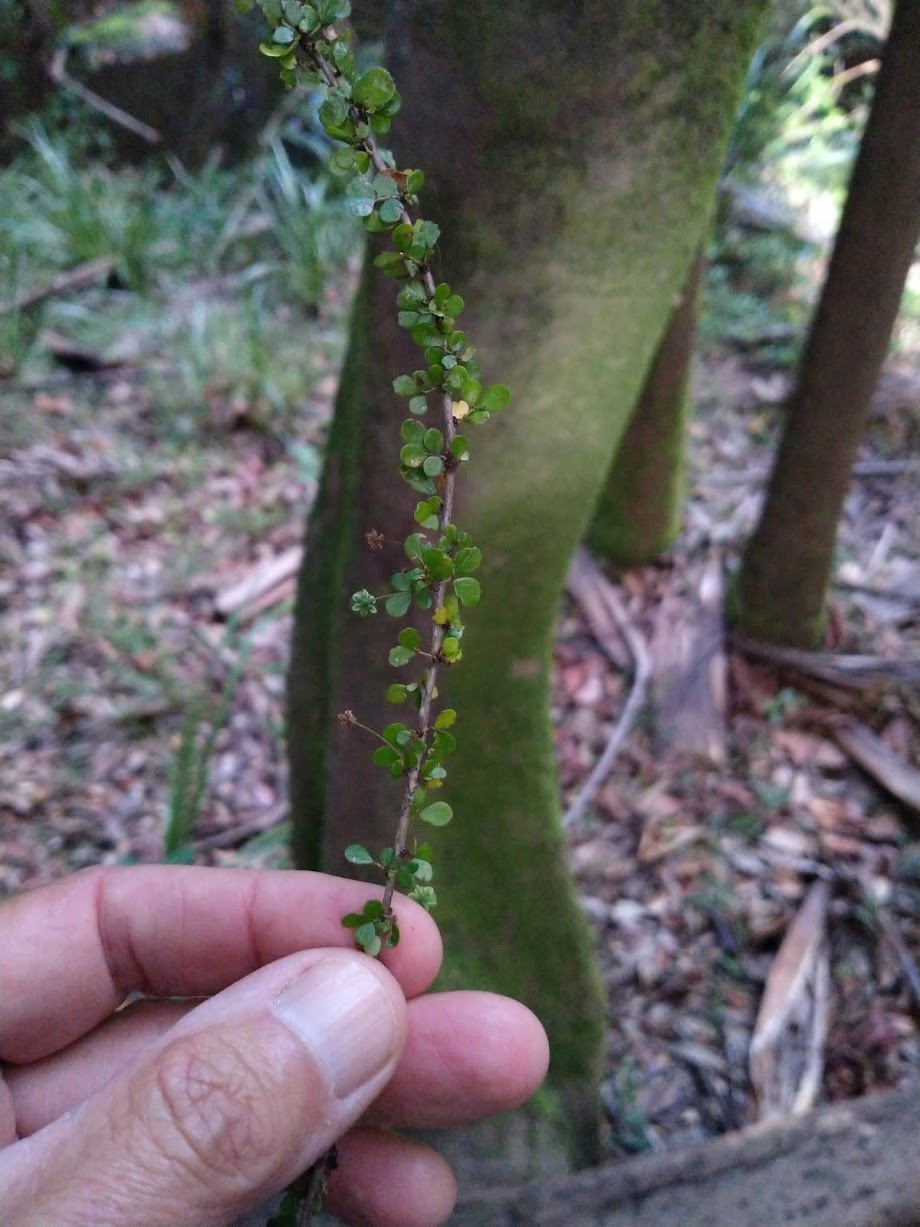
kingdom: Plantae
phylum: Tracheophyta
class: Magnoliopsida
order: Malpighiales
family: Phyllanthaceae
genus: Phyllanthus
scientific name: Phyllanthus microcladus
